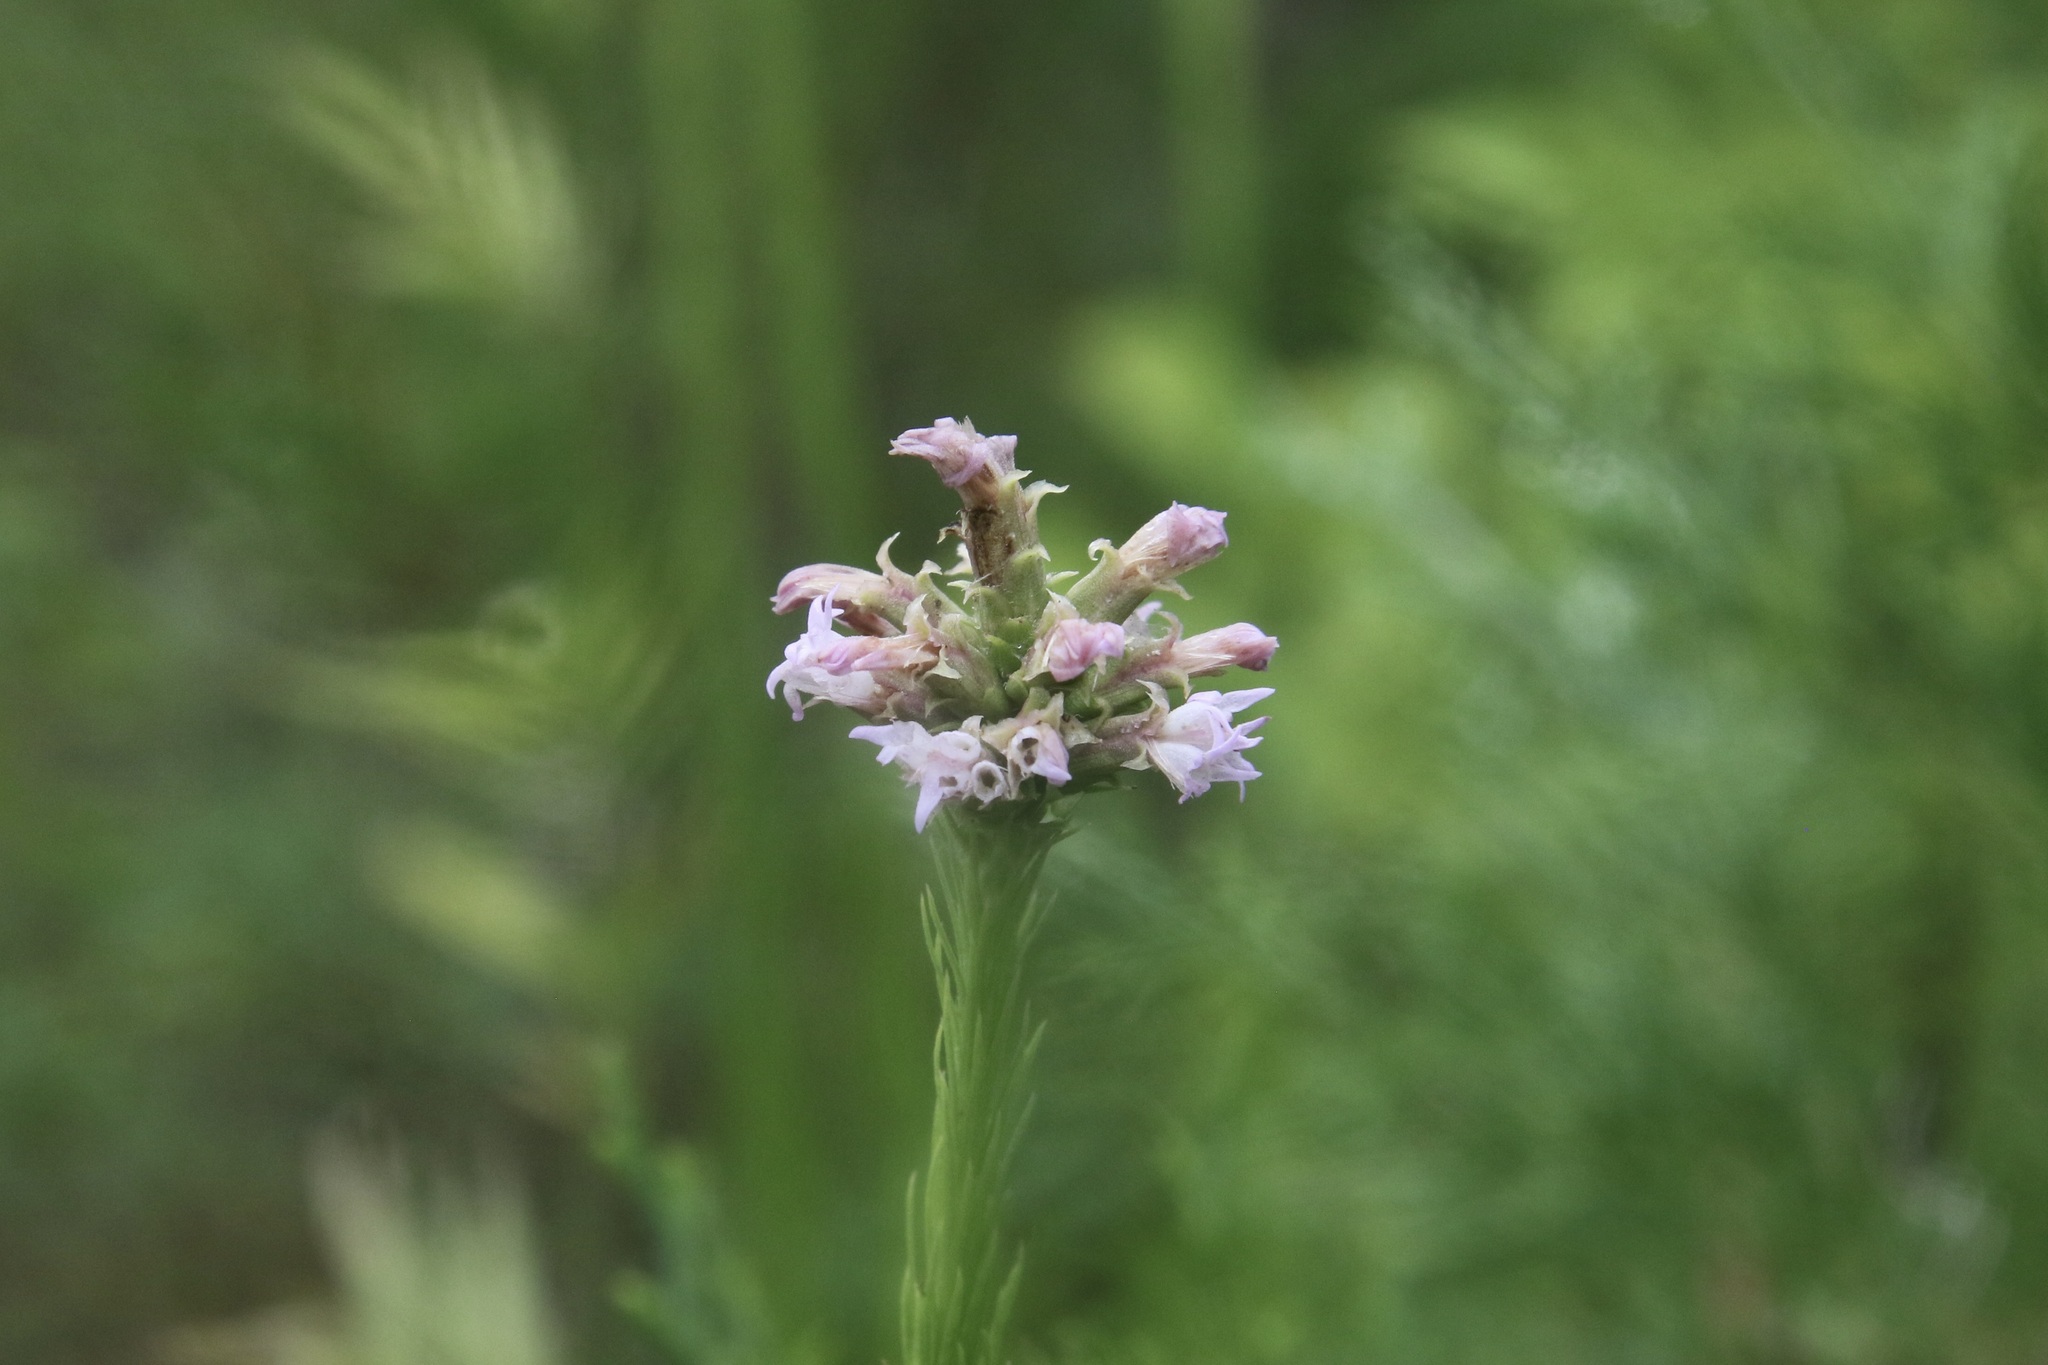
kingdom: Plantae
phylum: Tracheophyta
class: Magnoliopsida
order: Asterales
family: Asteraceae
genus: Liatris
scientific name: Liatris pycnostachya
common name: Cattail gayfeather
